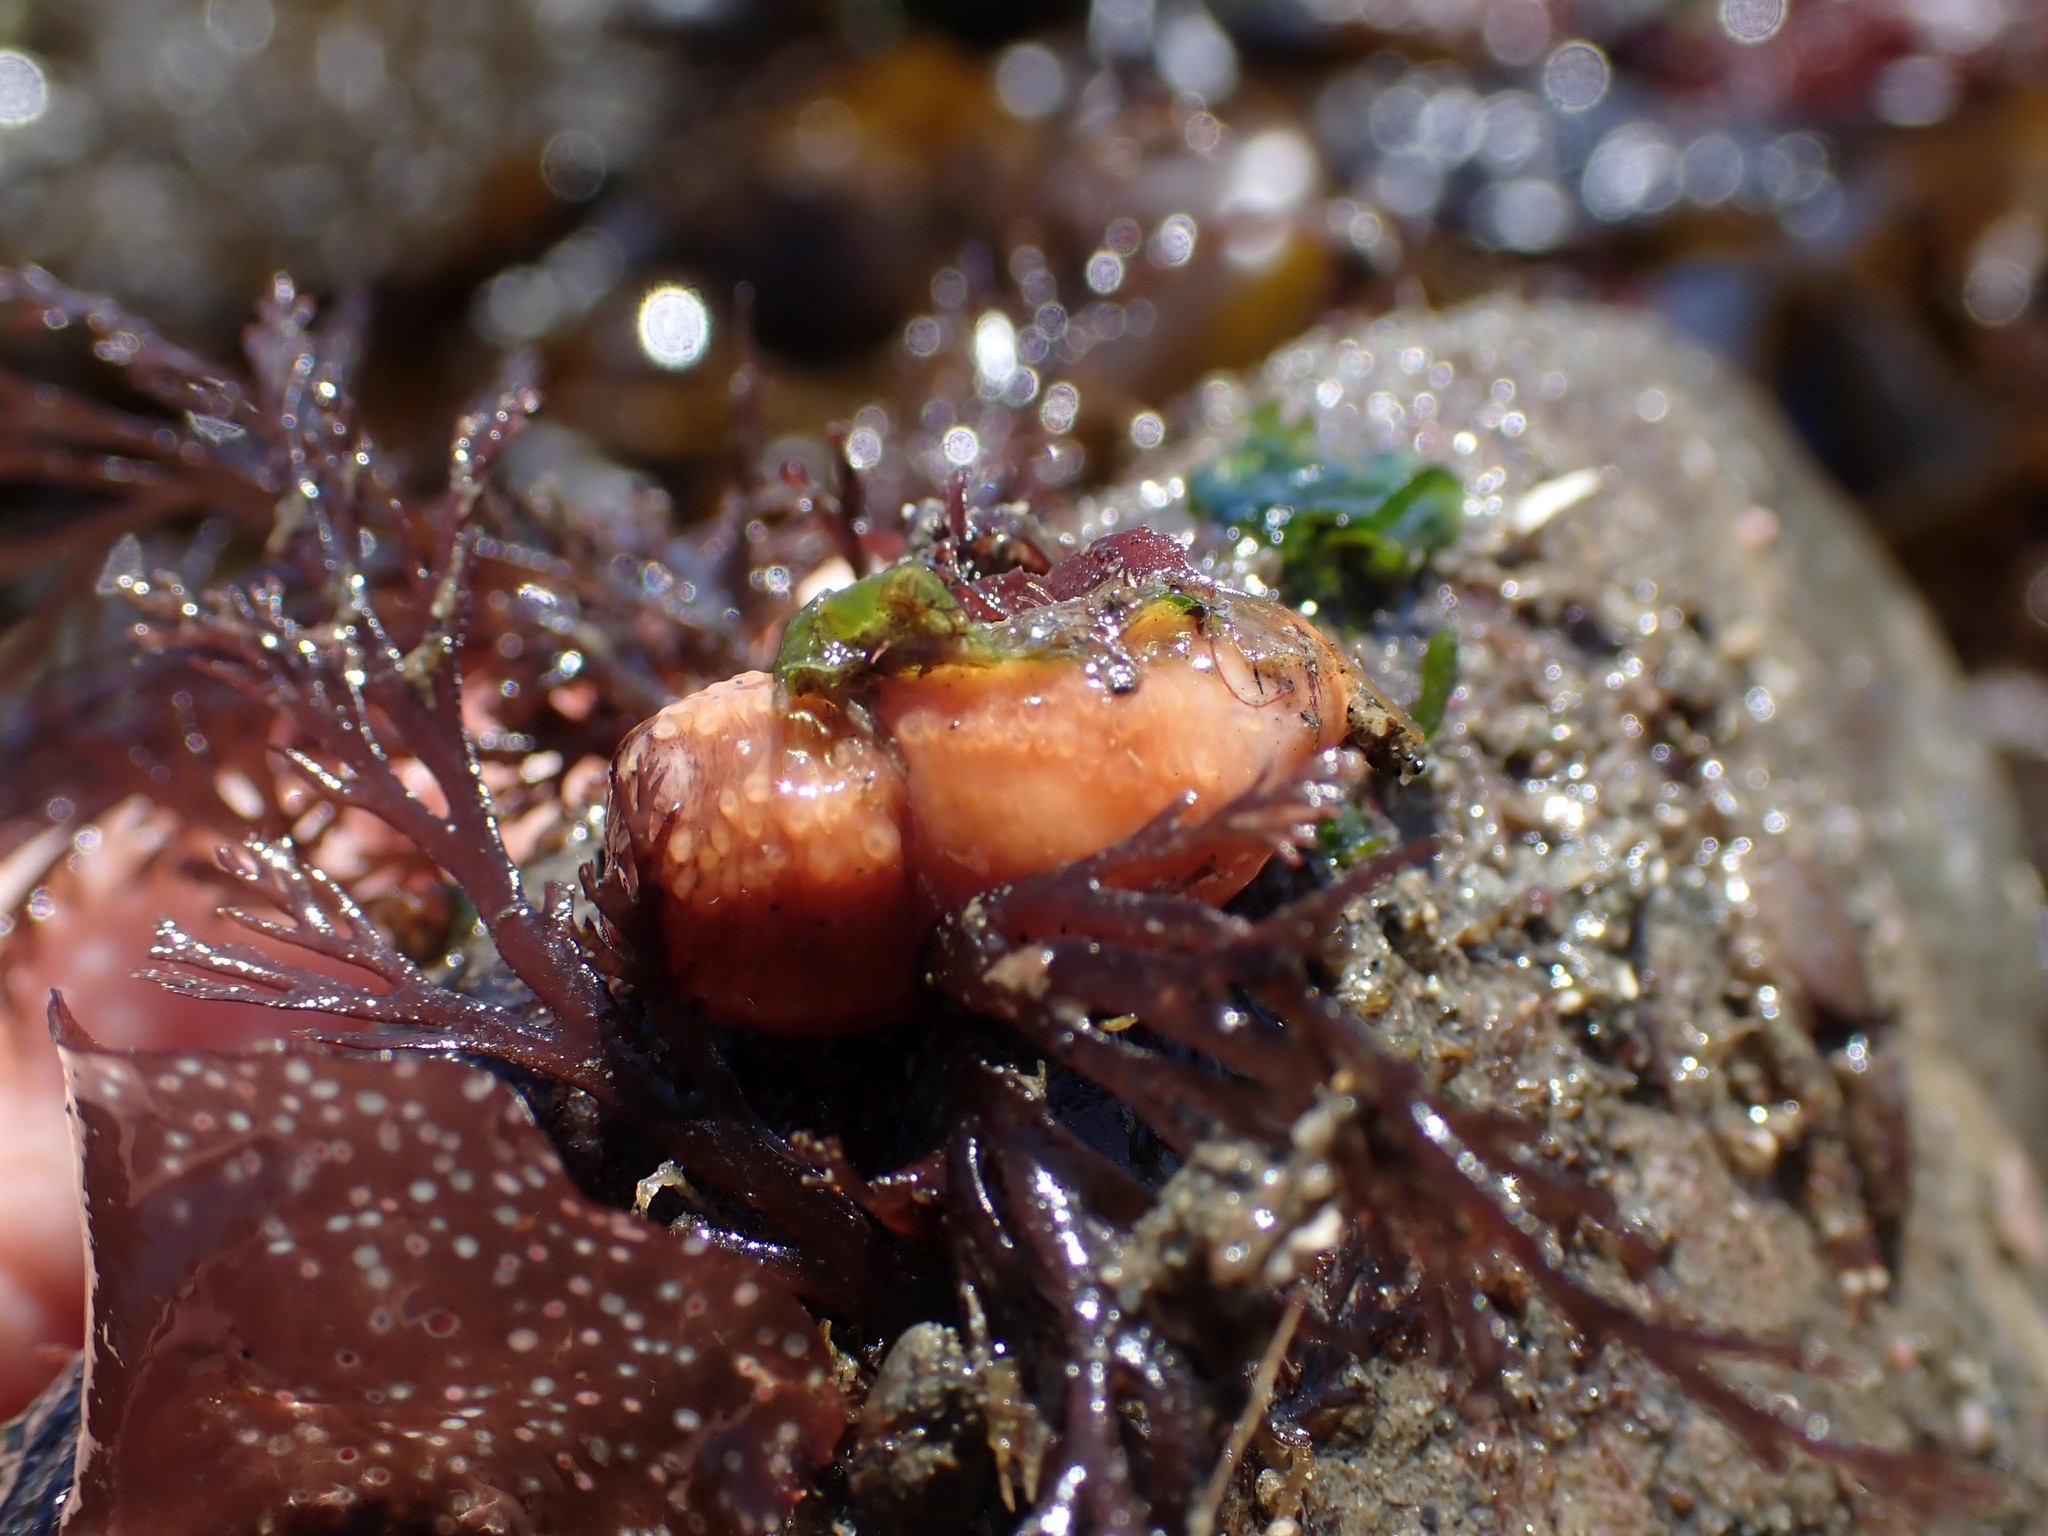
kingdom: Animalia
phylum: Echinodermata
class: Holothuroidea
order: Dendrochirotida
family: Cucumariidae
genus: Cucumaria
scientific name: Cucumaria miniata
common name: Orange sea cucumber
